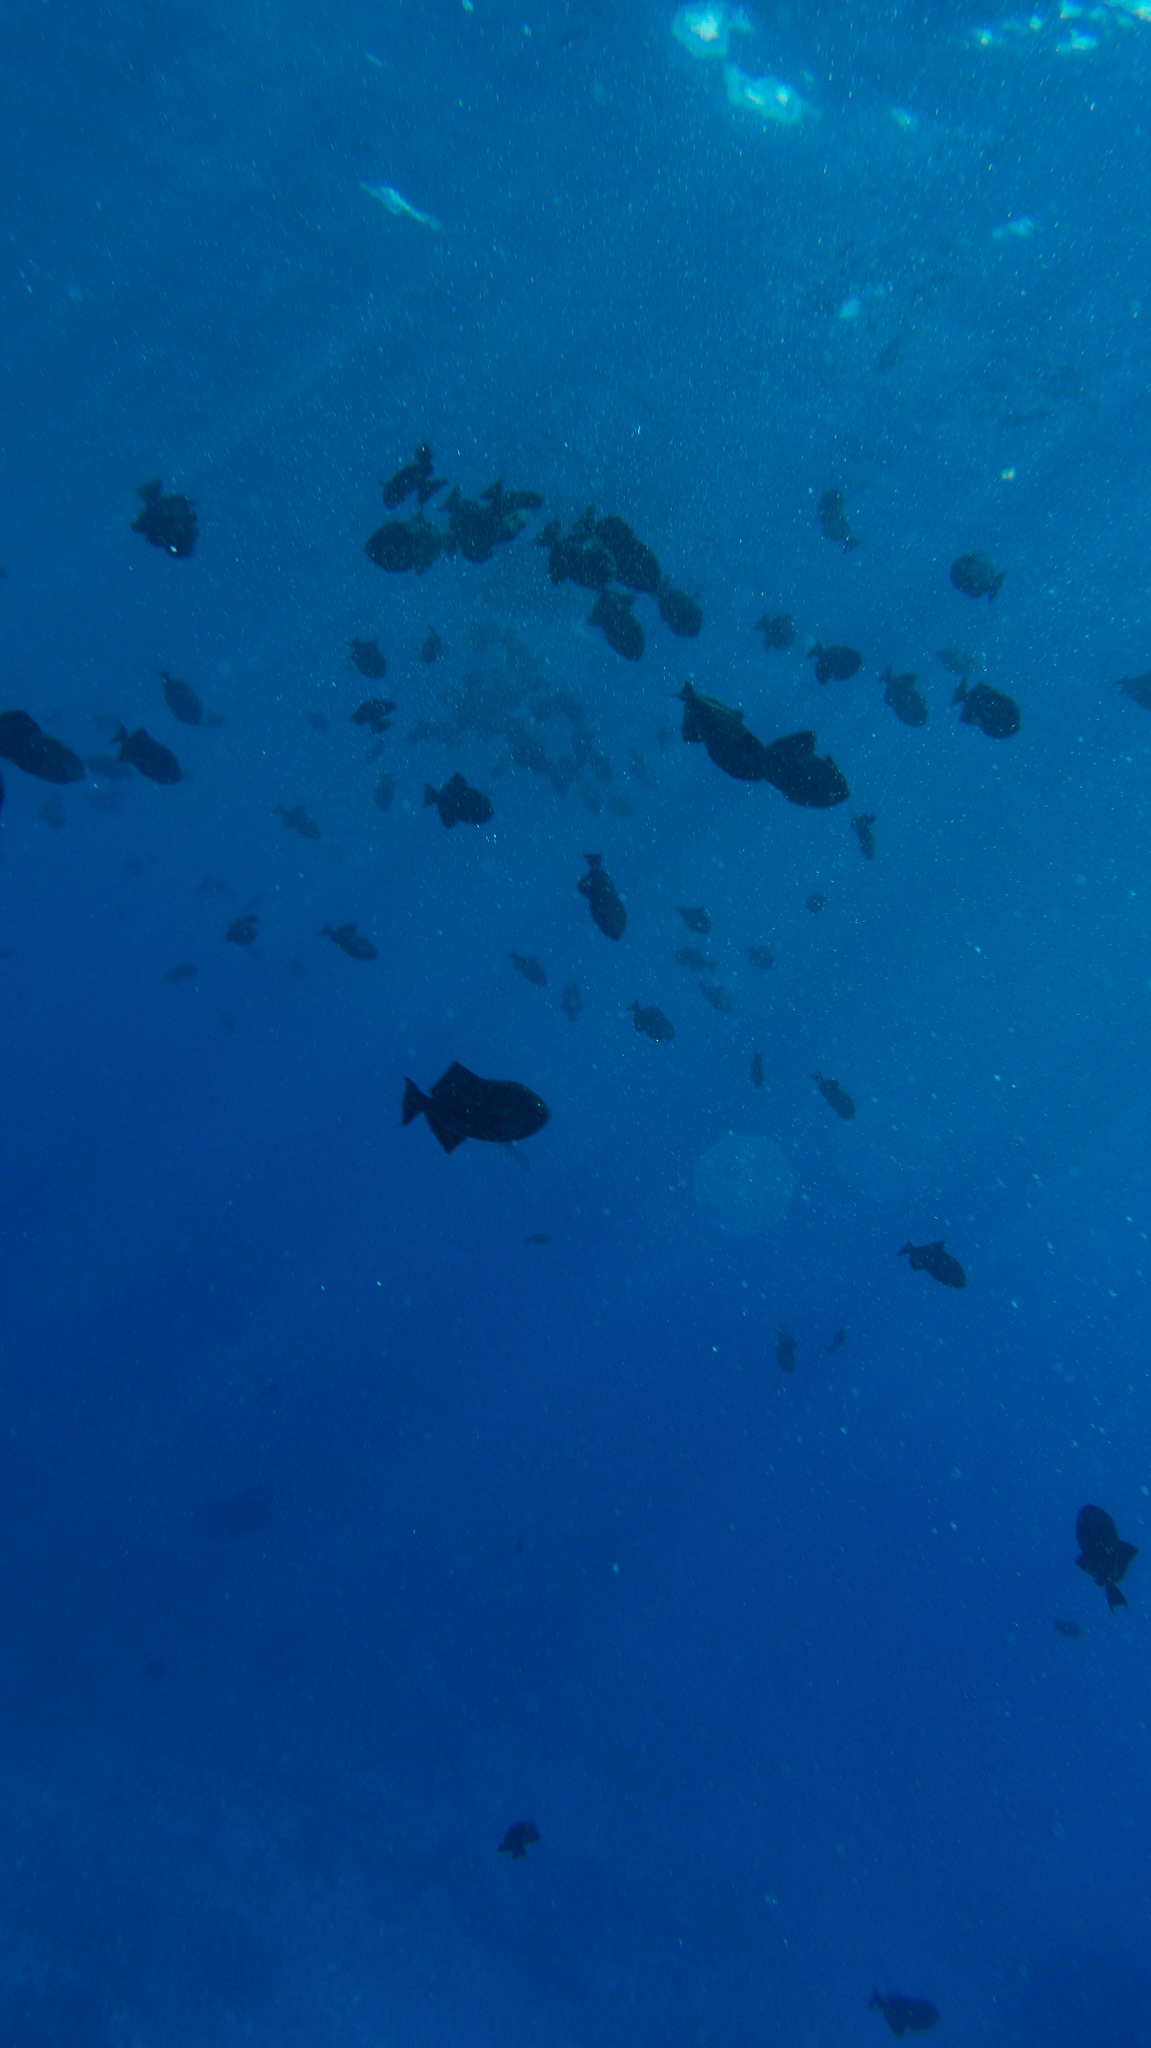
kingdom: Animalia
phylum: Chordata
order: Tetraodontiformes
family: Balistidae
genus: Melichthys
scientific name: Melichthys niger
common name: Black durgon
